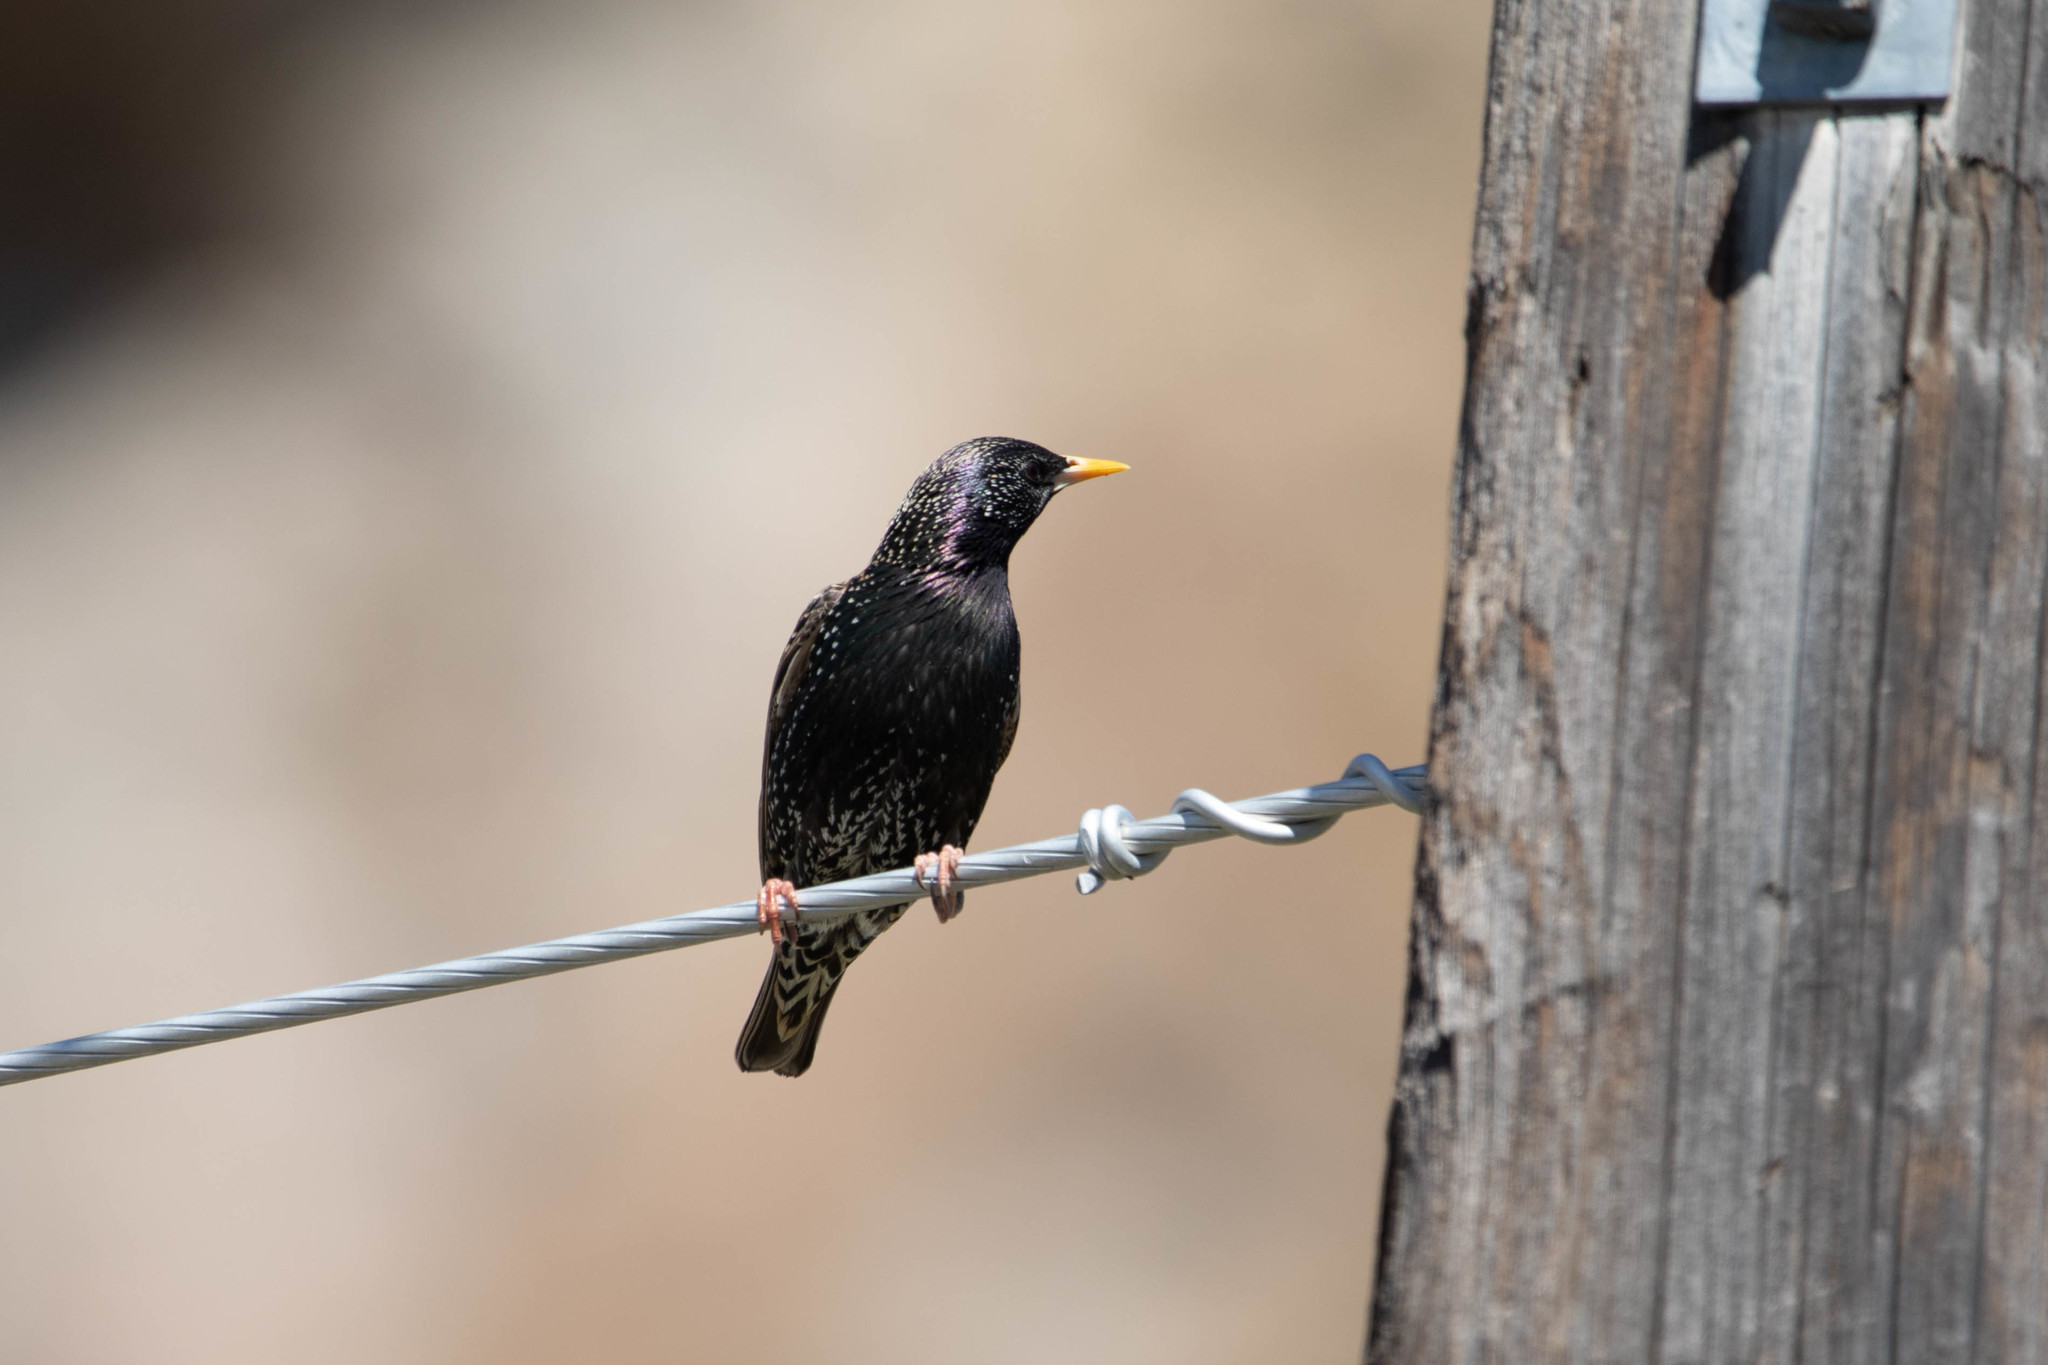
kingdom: Animalia
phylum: Chordata
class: Aves
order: Passeriformes
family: Sturnidae
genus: Sturnus
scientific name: Sturnus vulgaris
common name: Common starling
